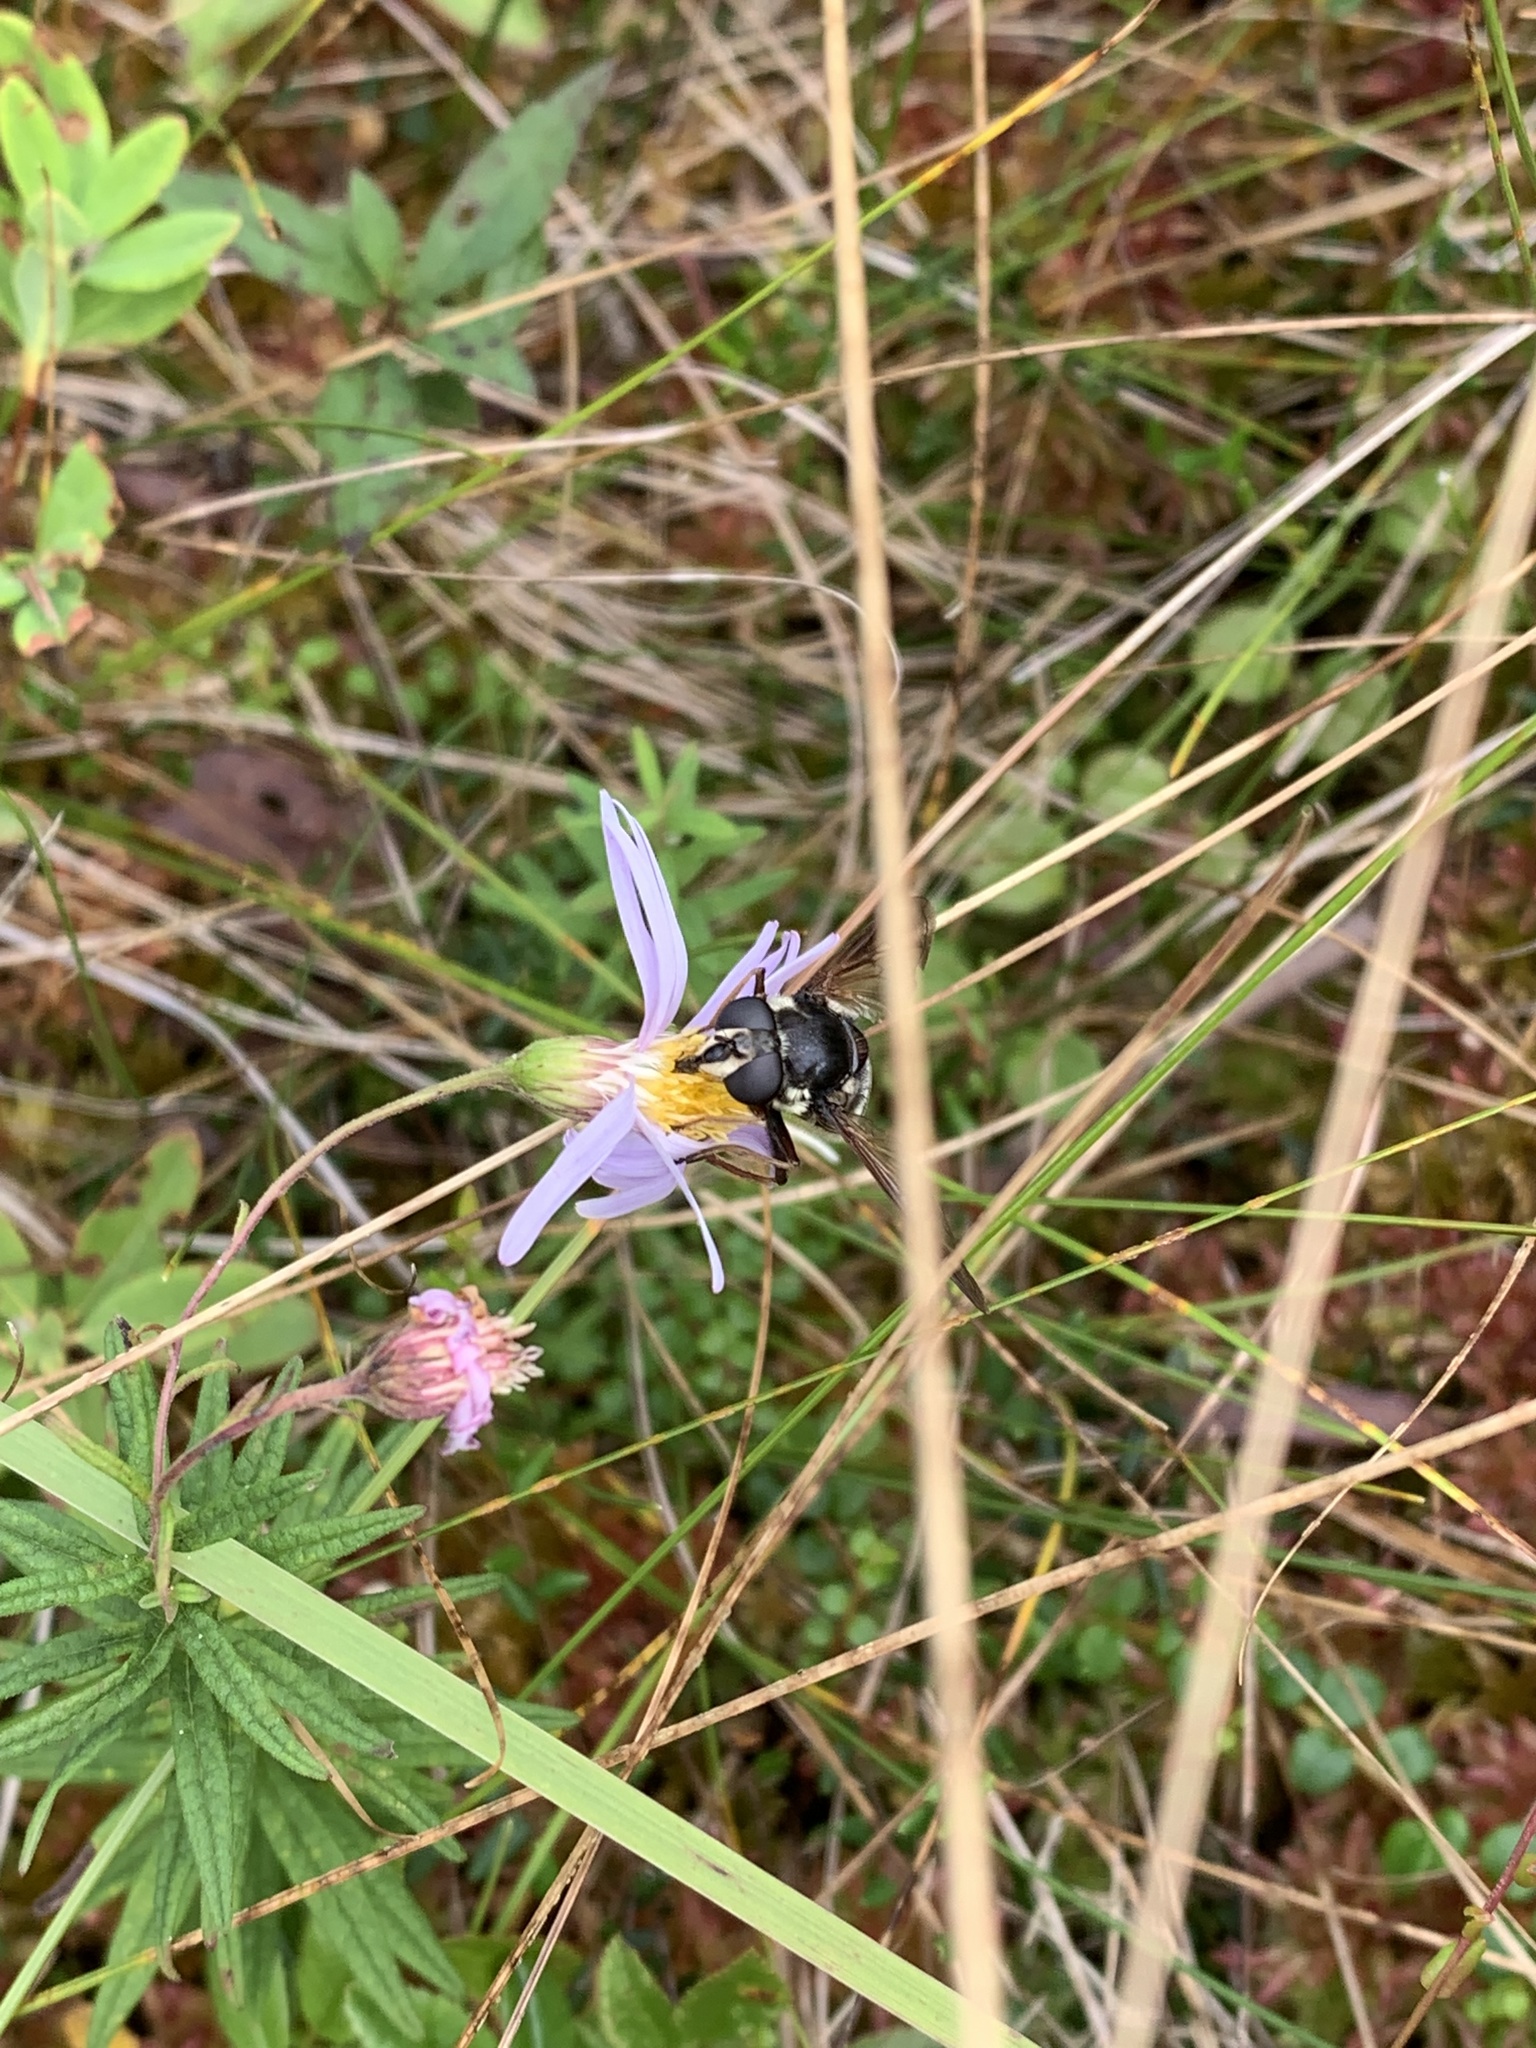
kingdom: Plantae
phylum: Tracheophyta
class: Magnoliopsida
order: Asterales
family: Asteraceae
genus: Oclemena
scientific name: Oclemena nemoralis
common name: Bog aster
